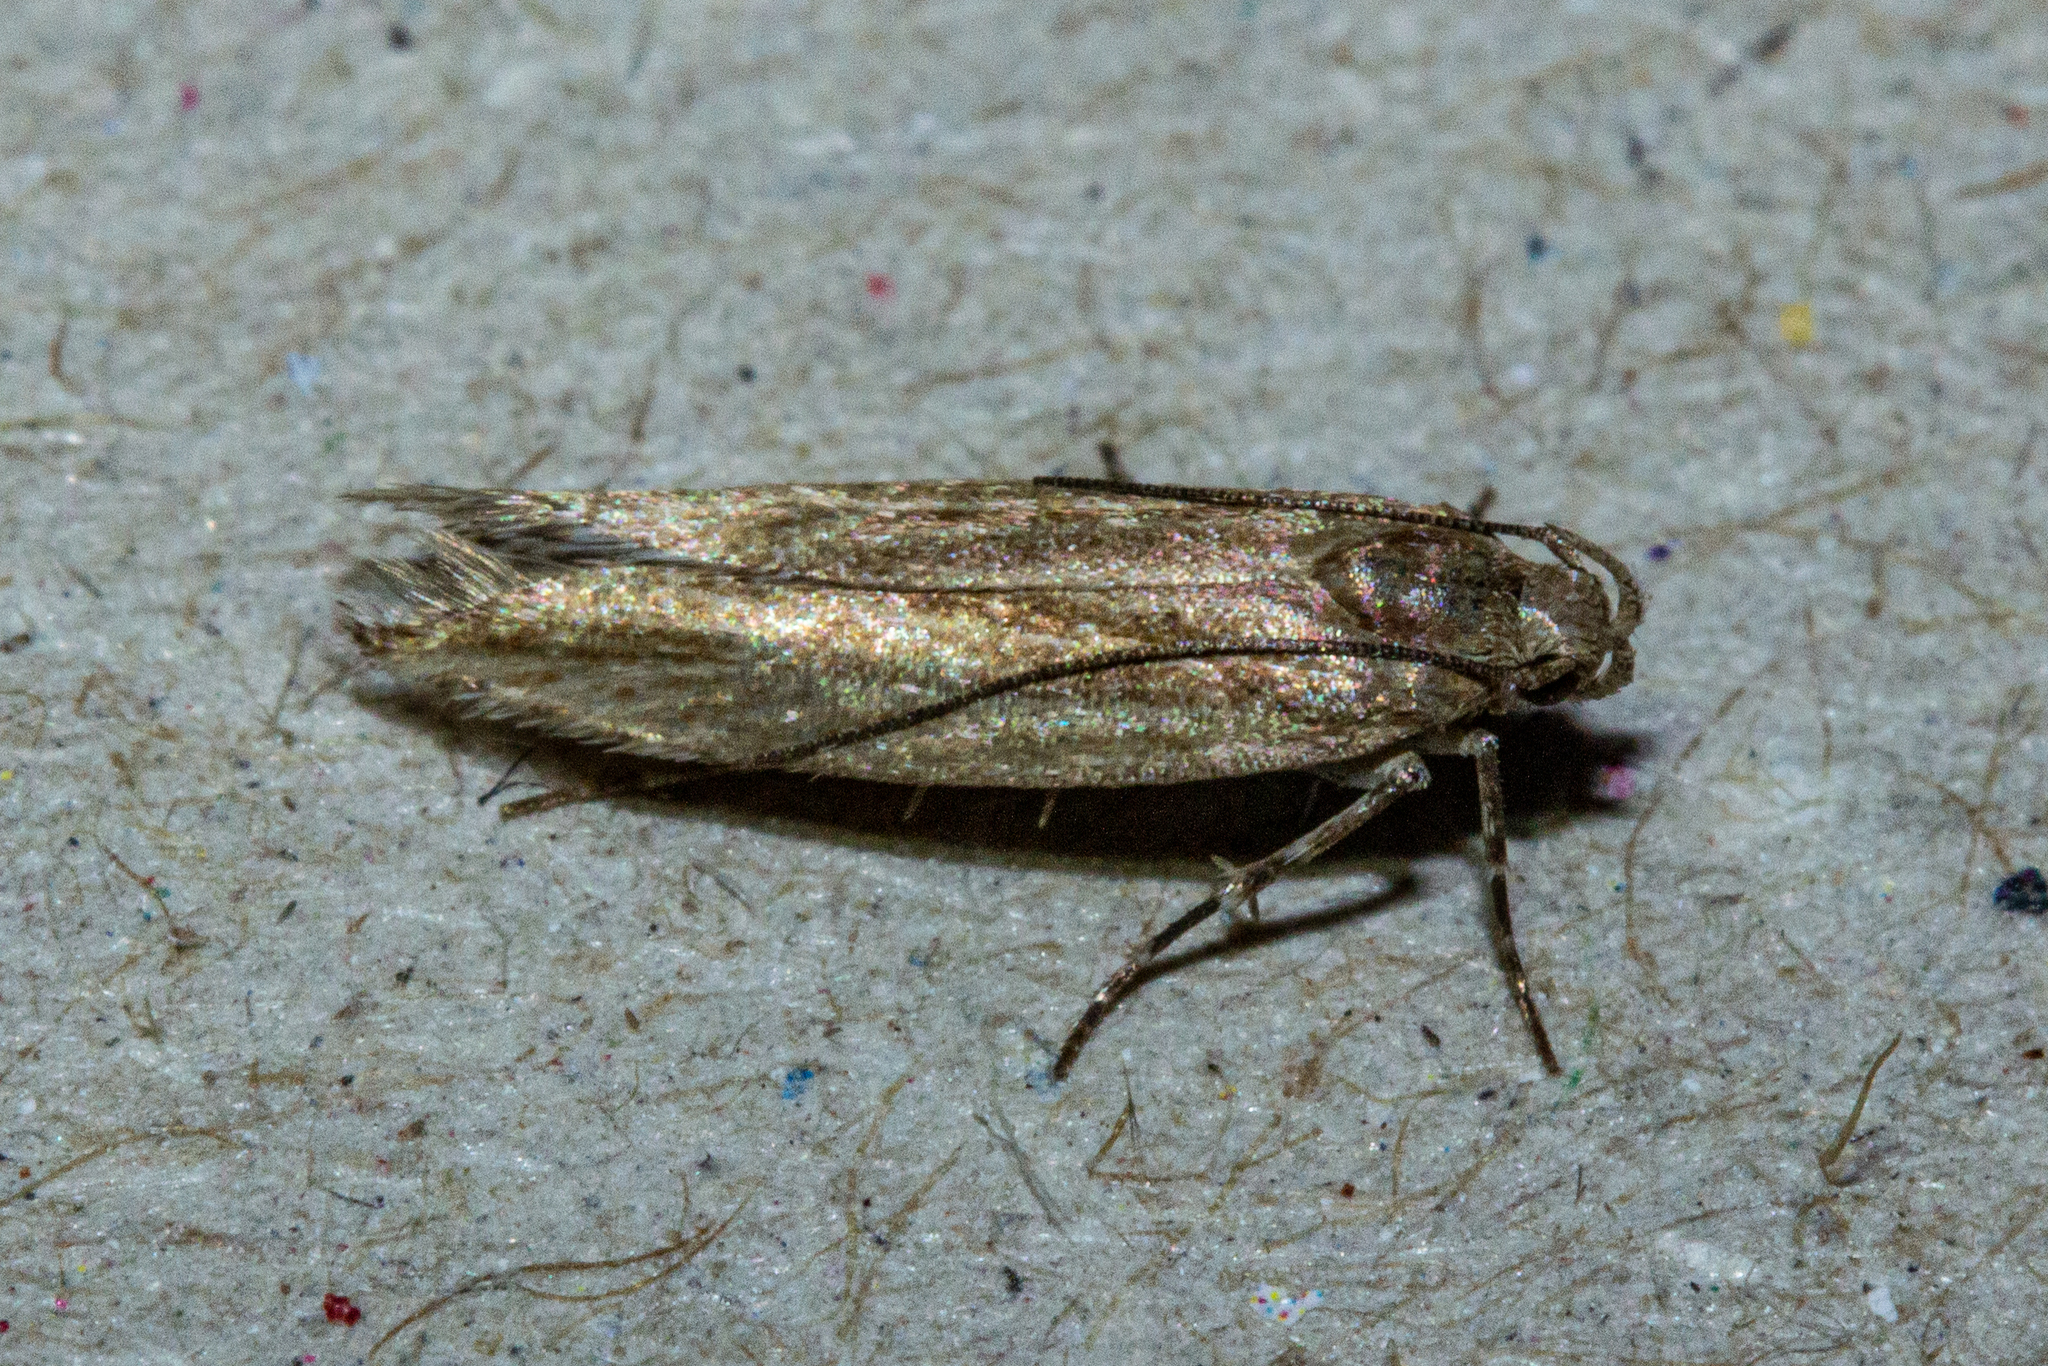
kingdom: Animalia
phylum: Arthropoda
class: Insecta
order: Lepidoptera
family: Gelechiidae
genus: Kiwaia
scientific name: Kiwaia pharetria
